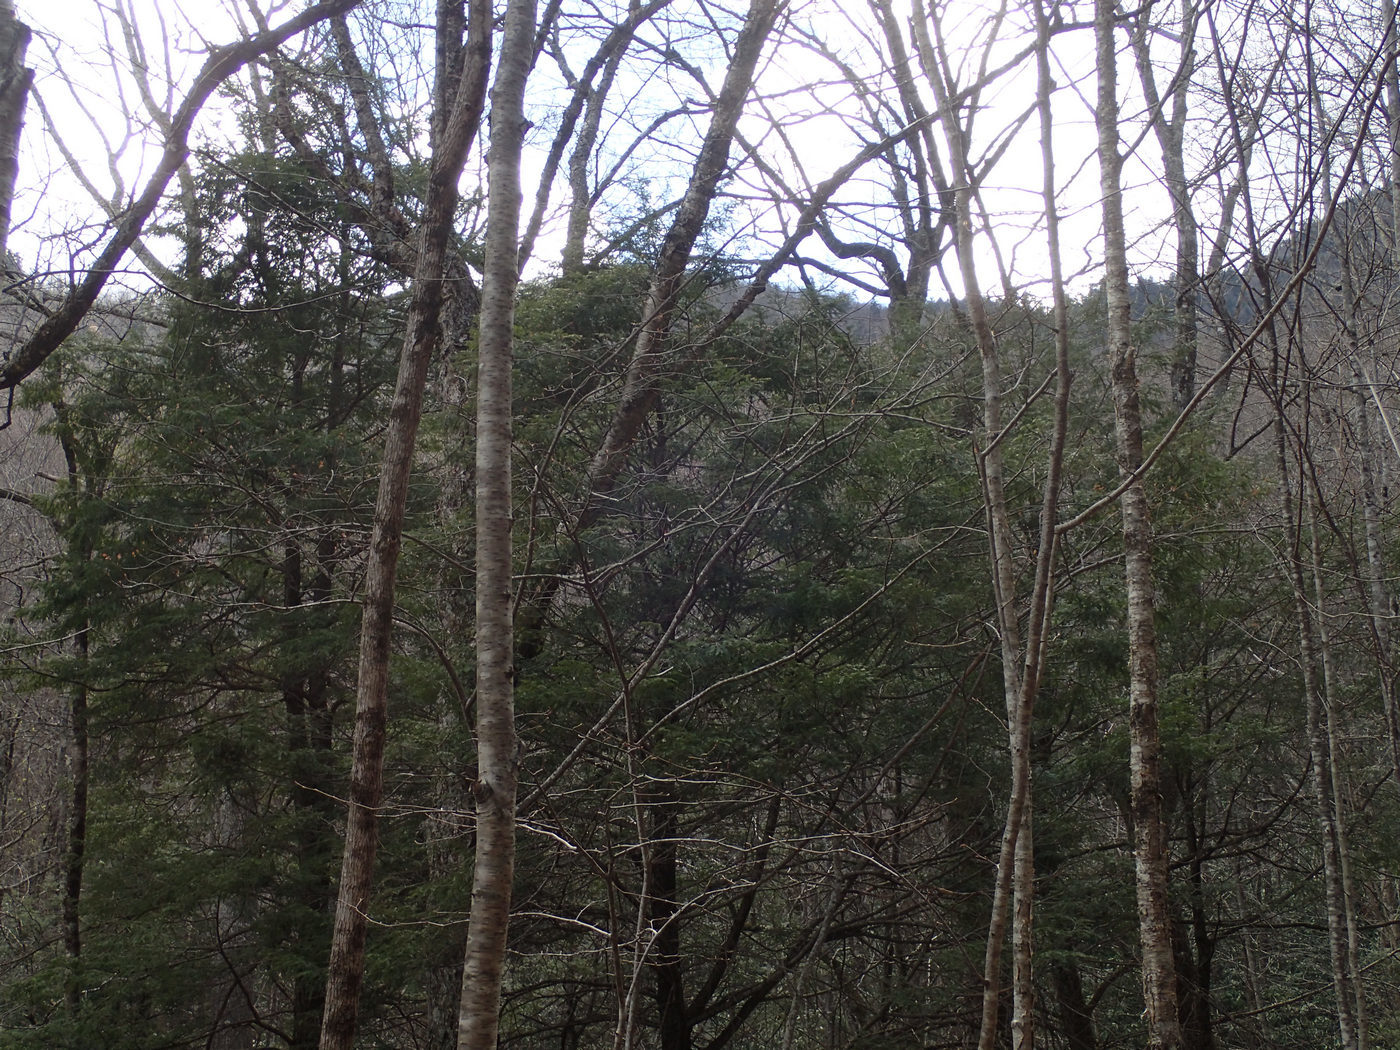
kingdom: Plantae
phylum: Tracheophyta
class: Pinopsida
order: Pinales
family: Pinaceae
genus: Tsuga
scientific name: Tsuga canadensis
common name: Eastern hemlock
